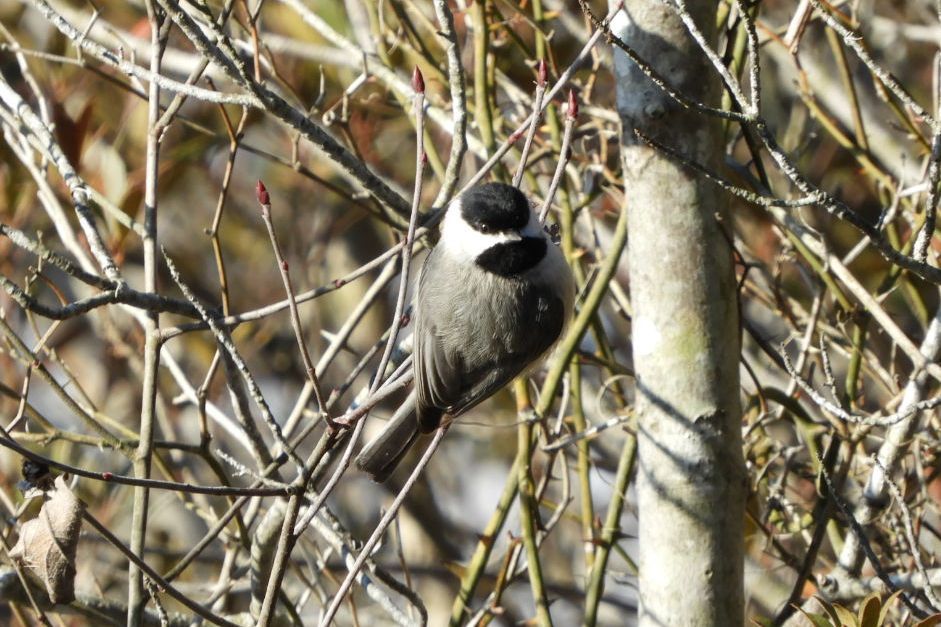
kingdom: Animalia
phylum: Chordata
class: Aves
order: Passeriformes
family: Paridae
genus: Poecile
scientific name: Poecile carolinensis
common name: Carolina chickadee
